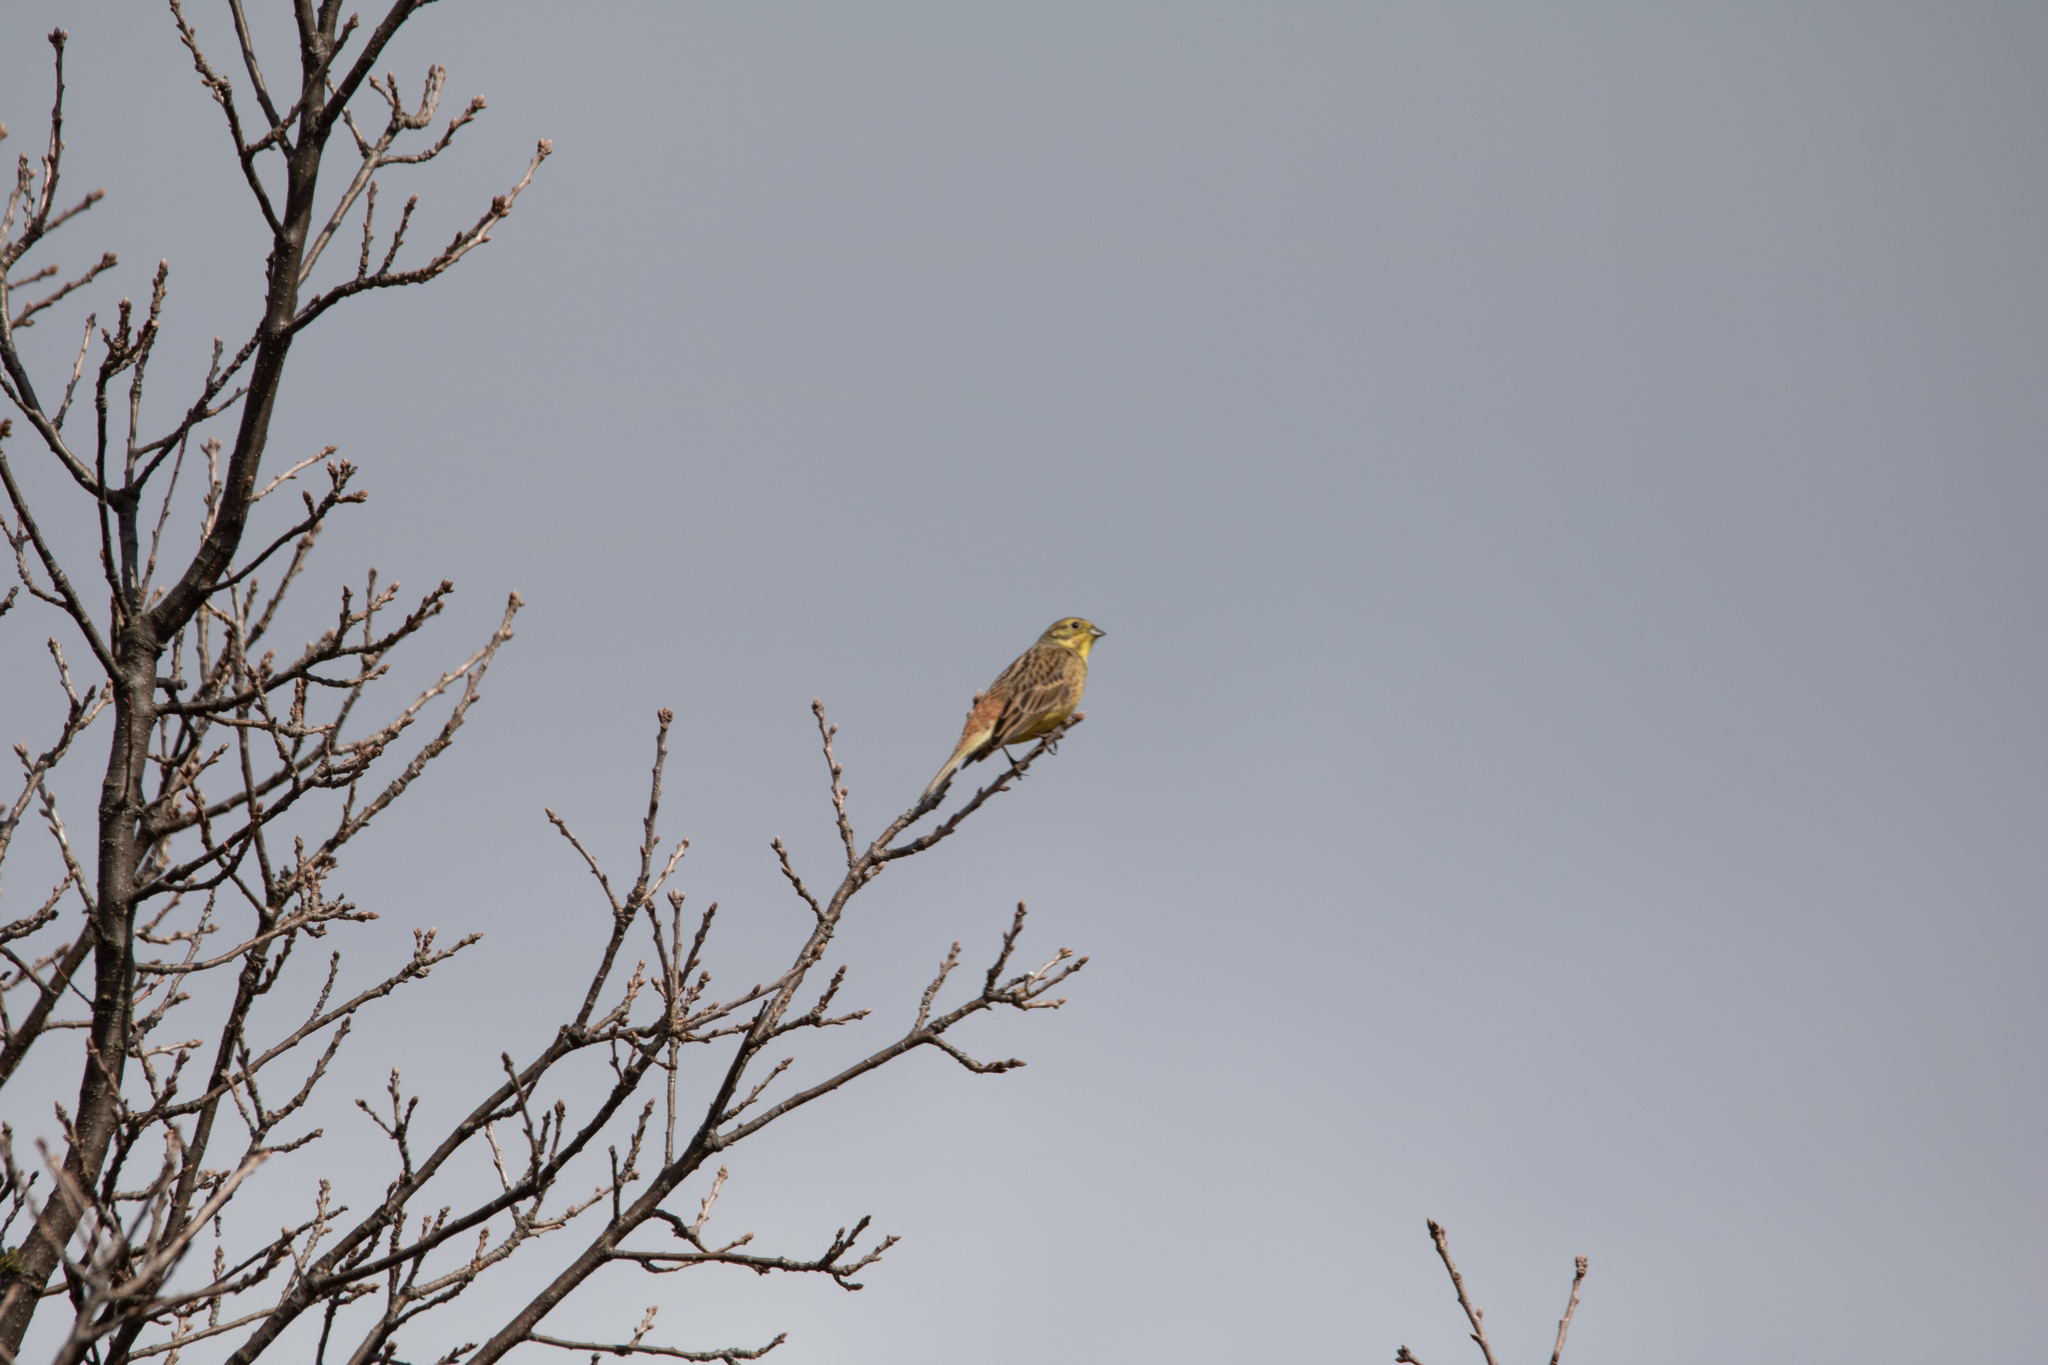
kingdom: Animalia
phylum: Chordata
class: Aves
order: Passeriformes
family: Emberizidae
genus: Emberiza
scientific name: Emberiza citrinella
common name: Yellowhammer
